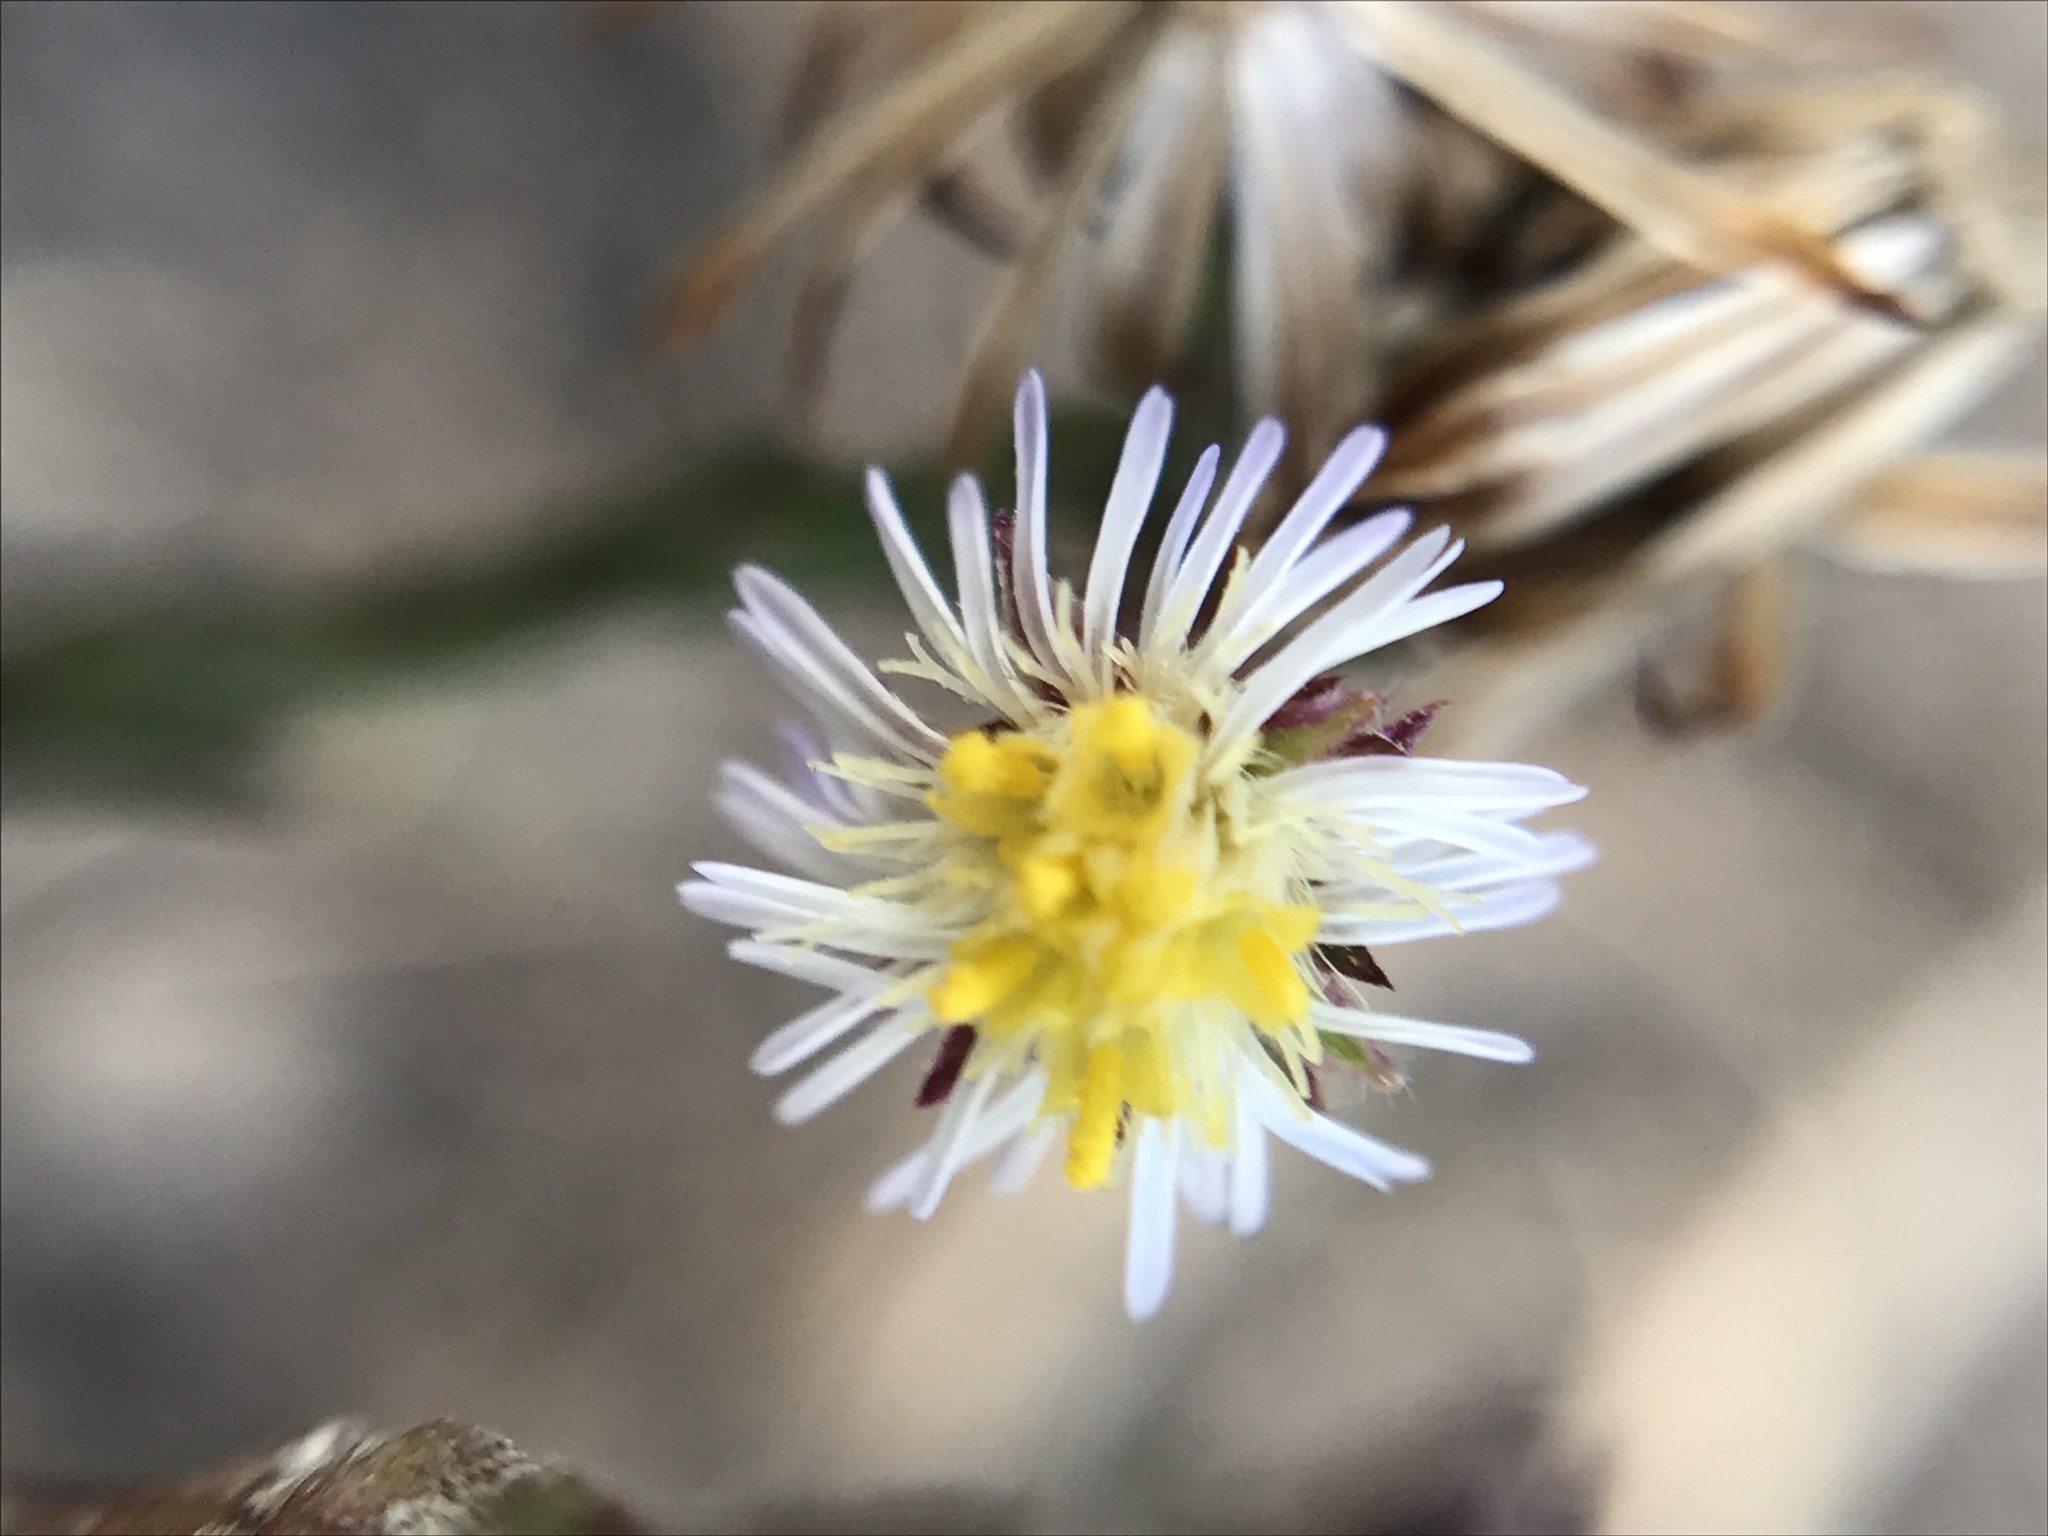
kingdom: Plantae
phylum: Tracheophyta
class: Magnoliopsida
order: Asterales
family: Asteraceae
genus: Symphyotrichum
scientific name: Symphyotrichum graminifolium
